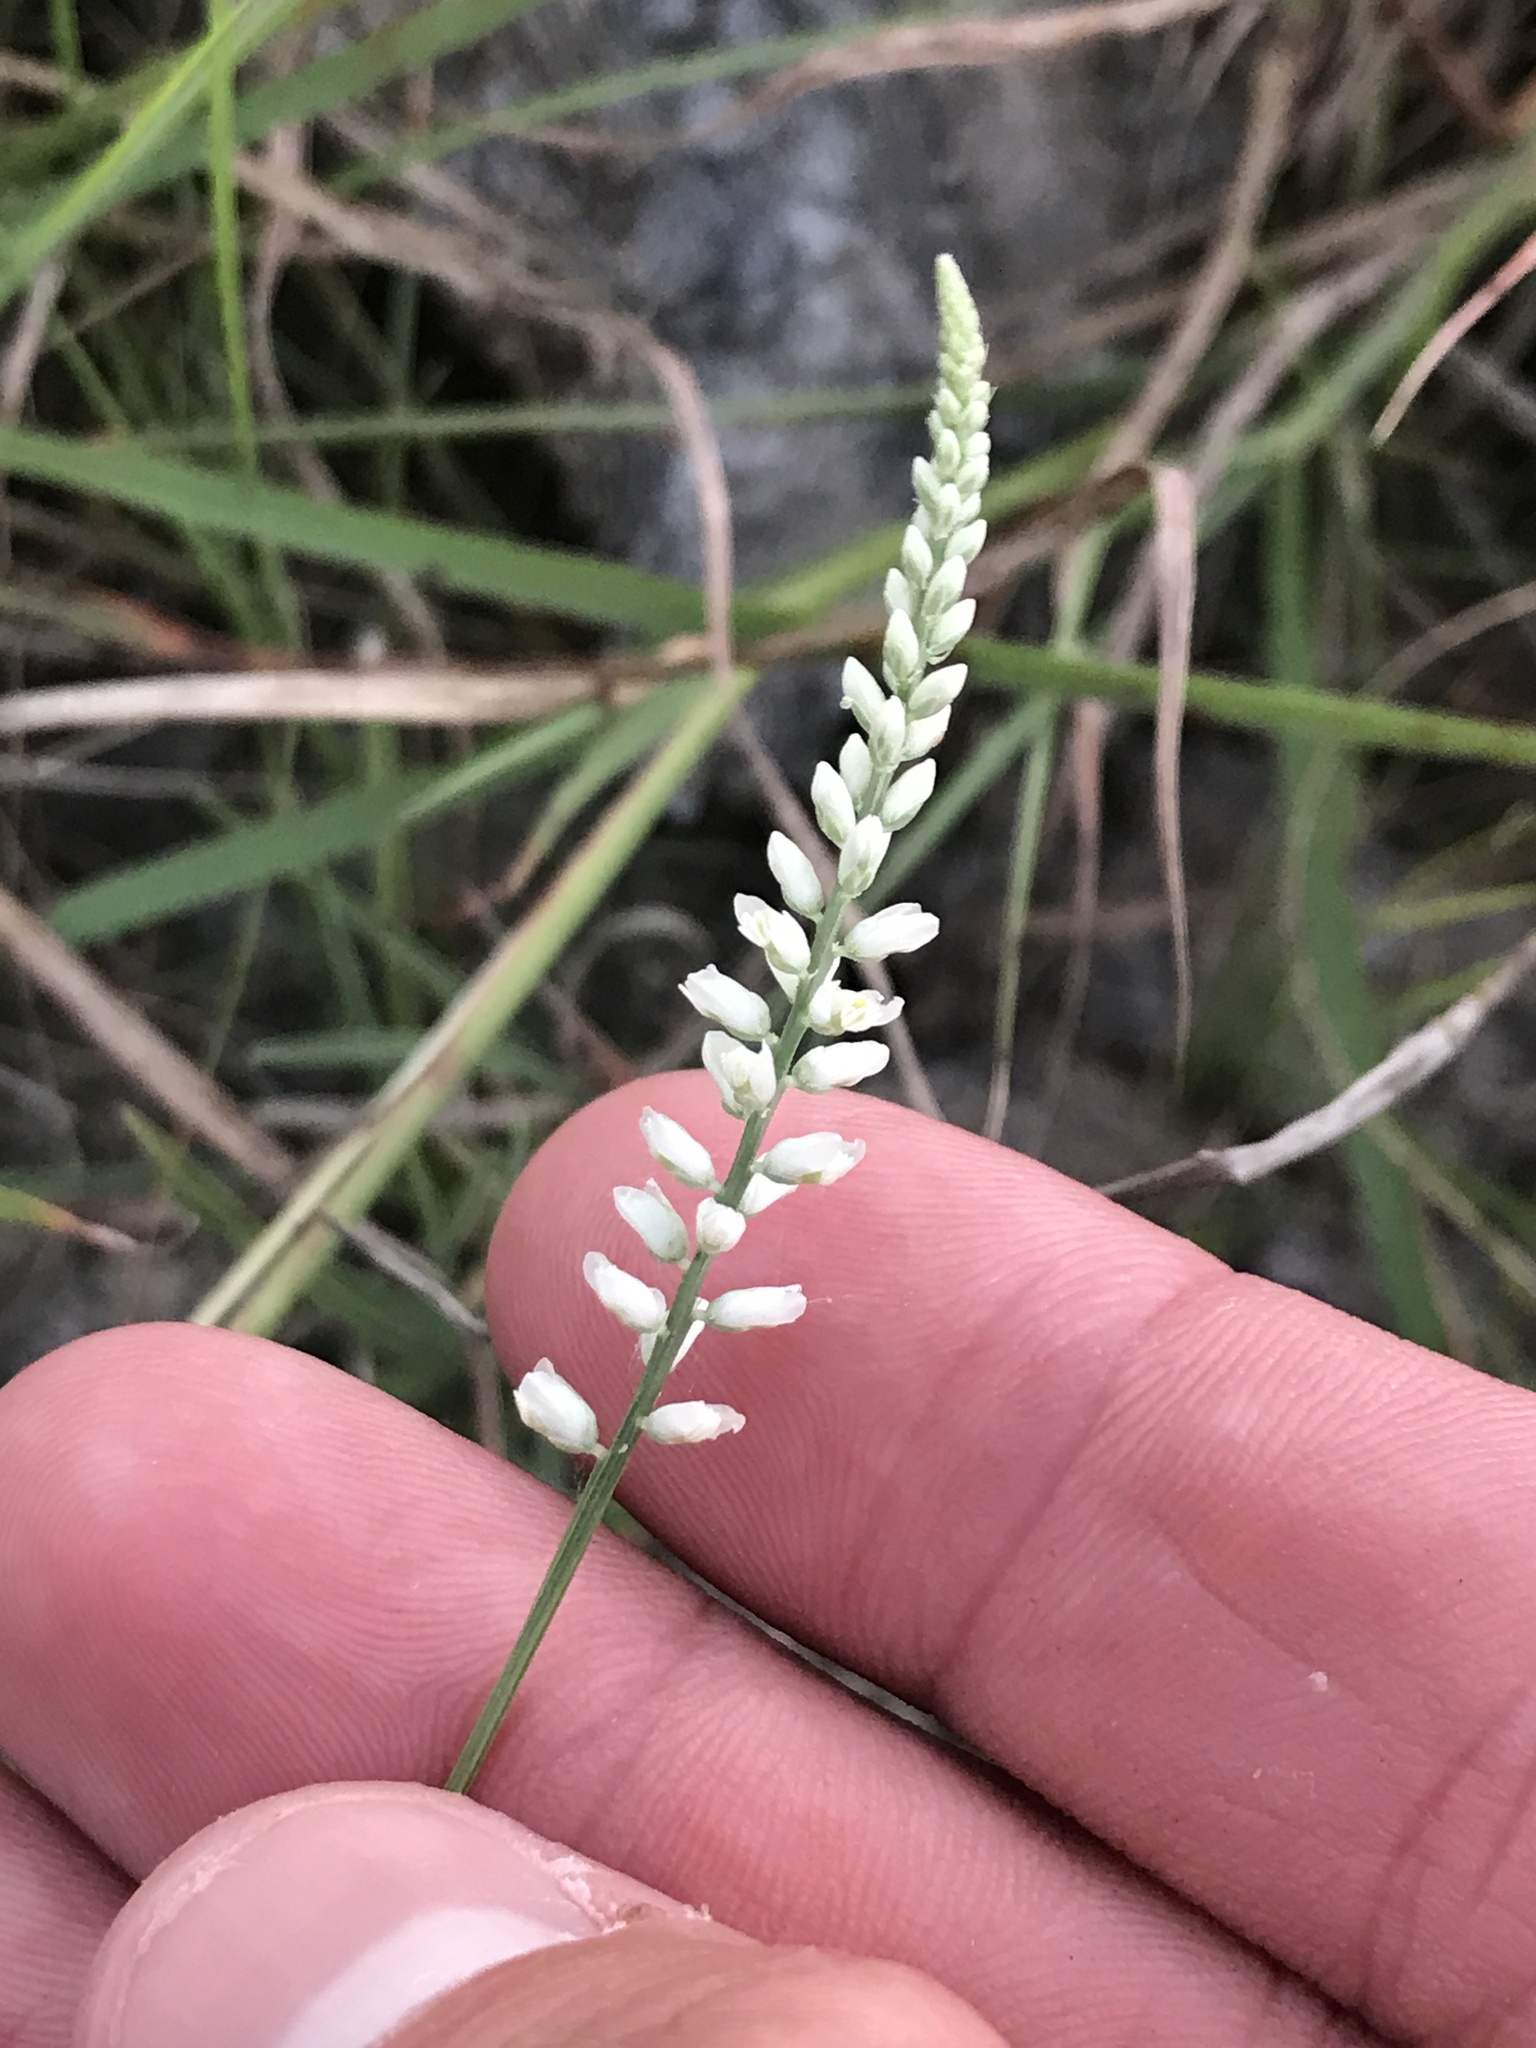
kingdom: Plantae
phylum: Tracheophyta
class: Magnoliopsida
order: Fabales
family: Polygalaceae
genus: Polygala
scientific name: Polygala alba
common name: White milkwort
